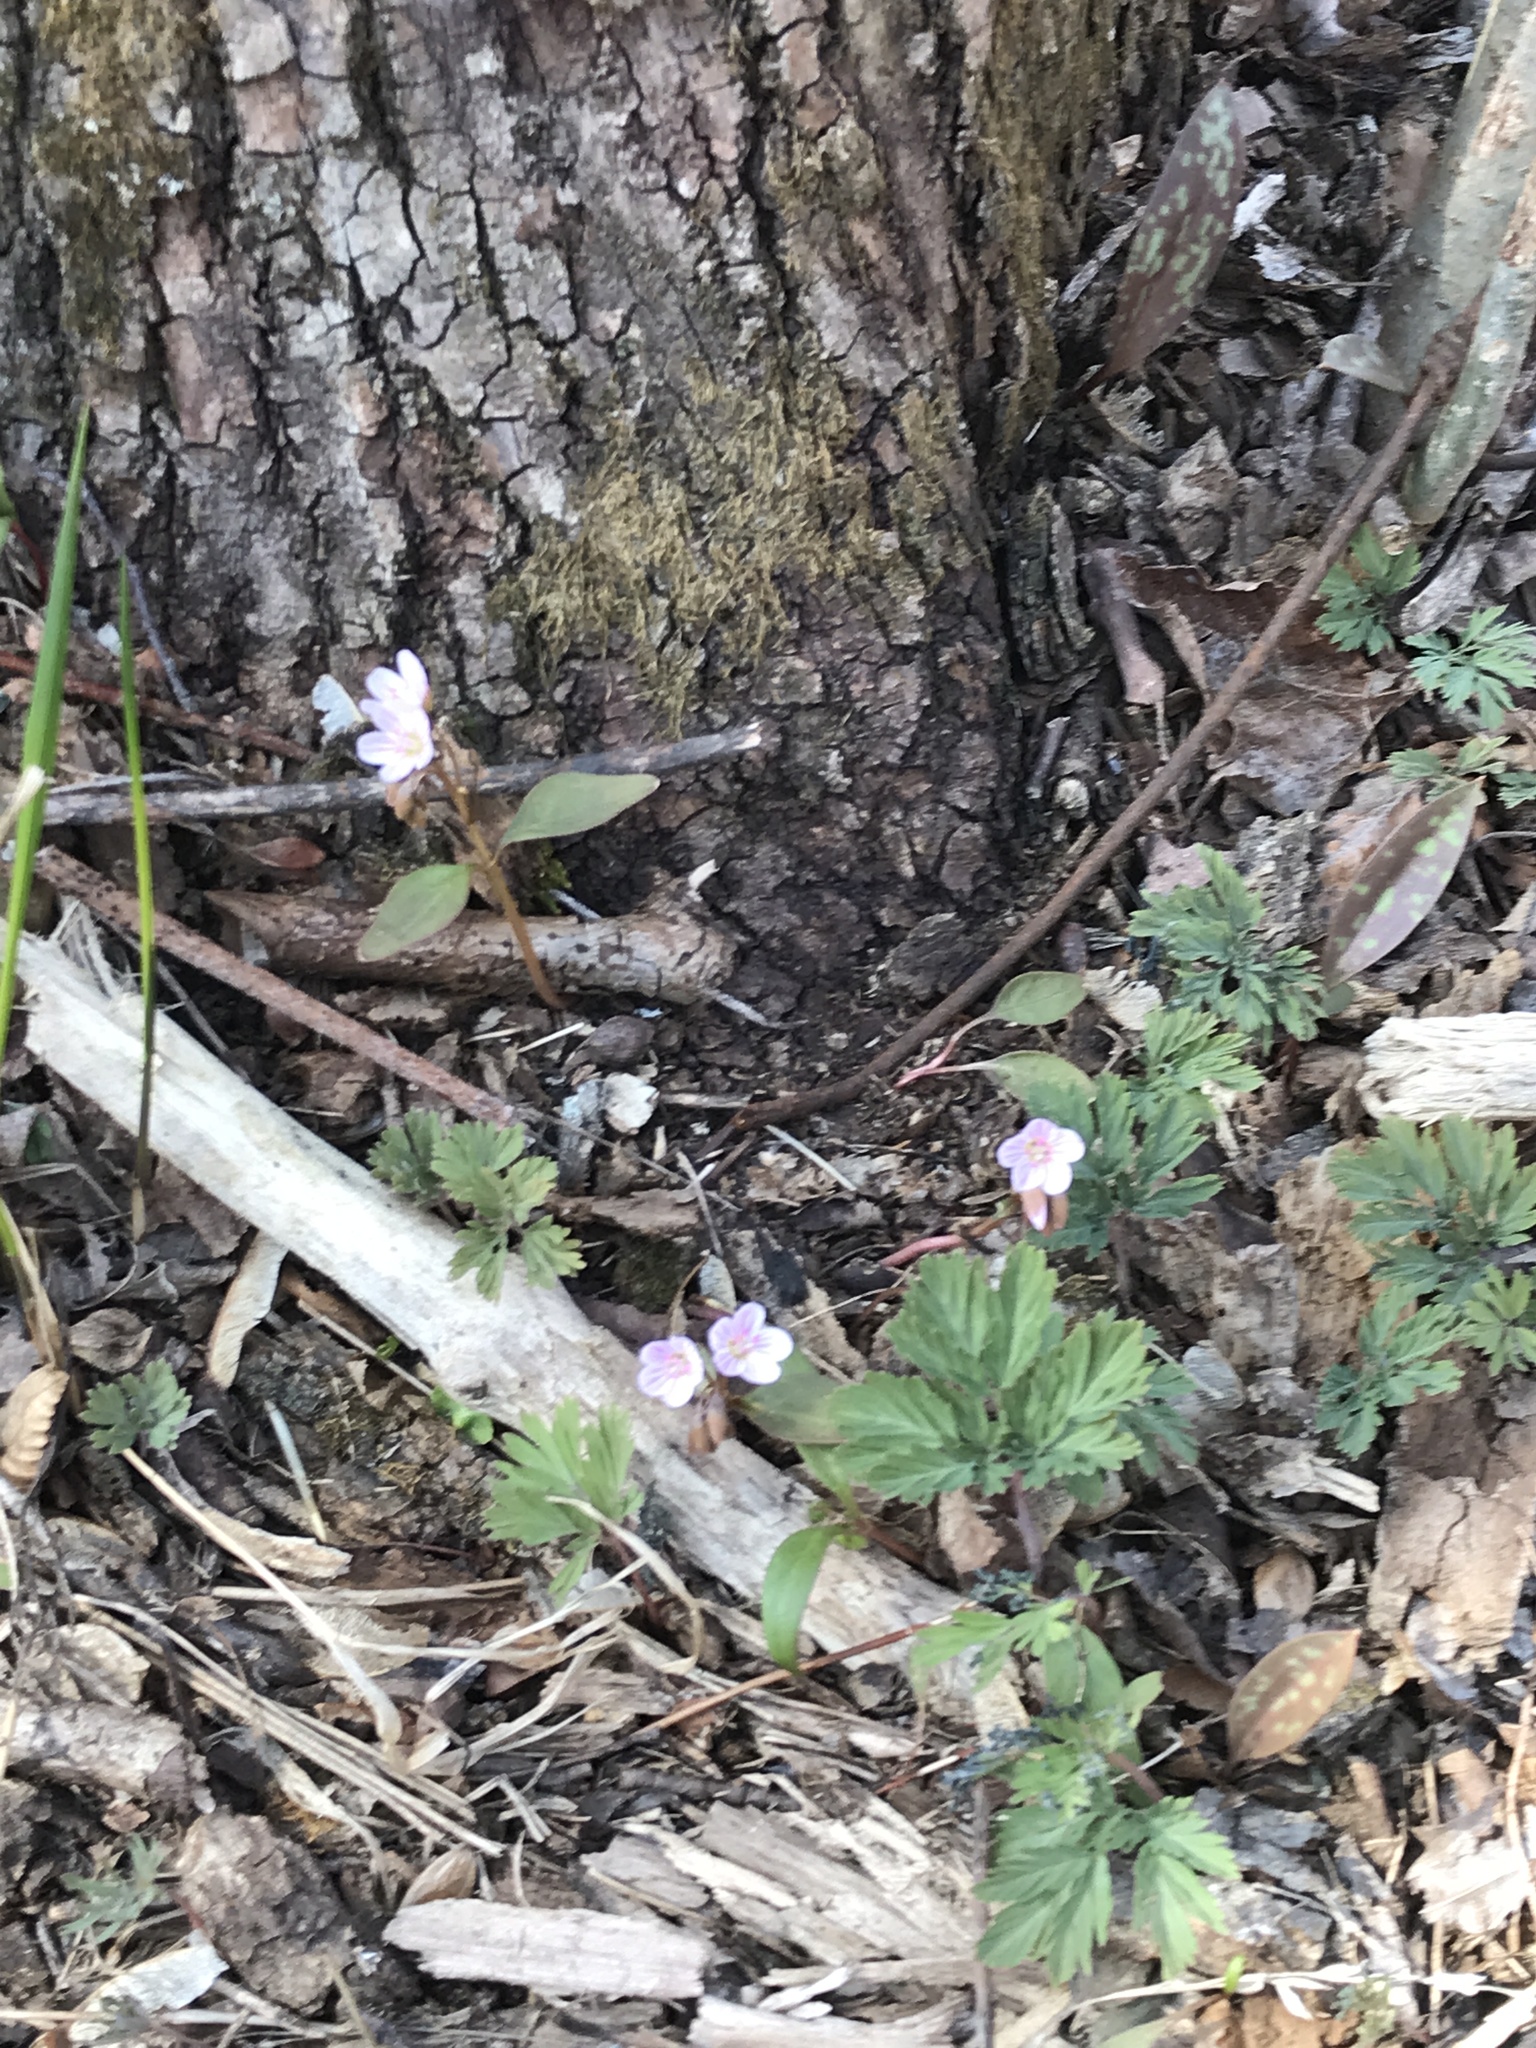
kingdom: Plantae
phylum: Tracheophyta
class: Magnoliopsida
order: Caryophyllales
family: Montiaceae
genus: Claytonia
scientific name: Claytonia caroliniana
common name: Carolina spring beauty
